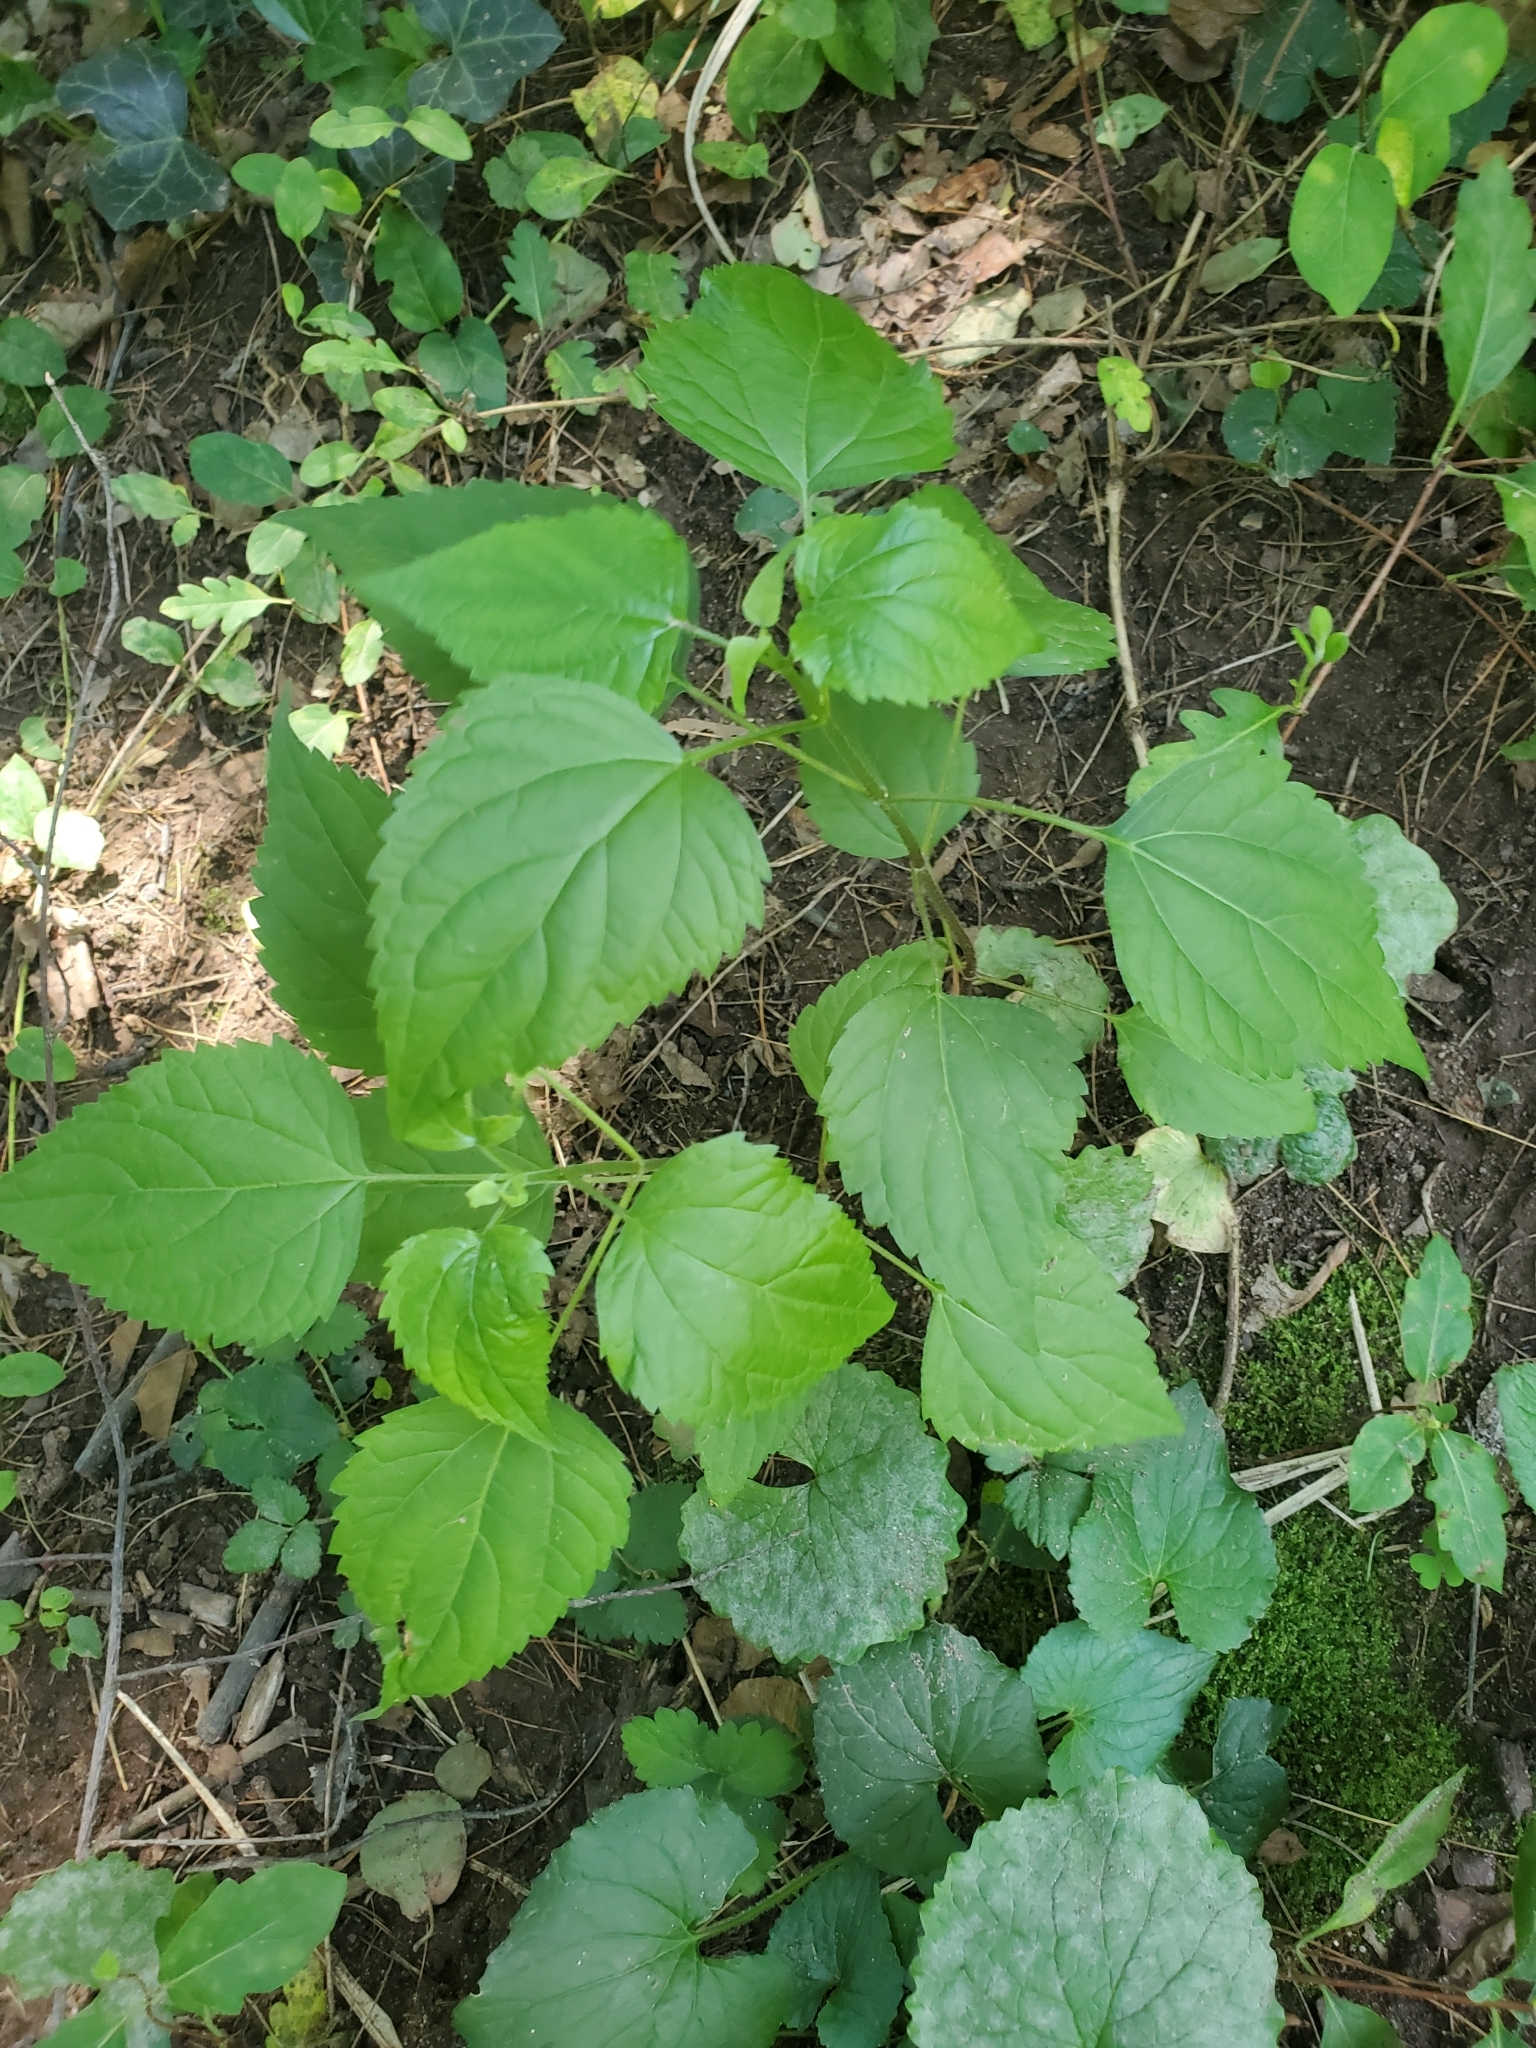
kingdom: Plantae
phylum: Tracheophyta
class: Magnoliopsida
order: Asterales
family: Asteraceae
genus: Ageratina
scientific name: Ageratina altissima
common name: White snakeroot
